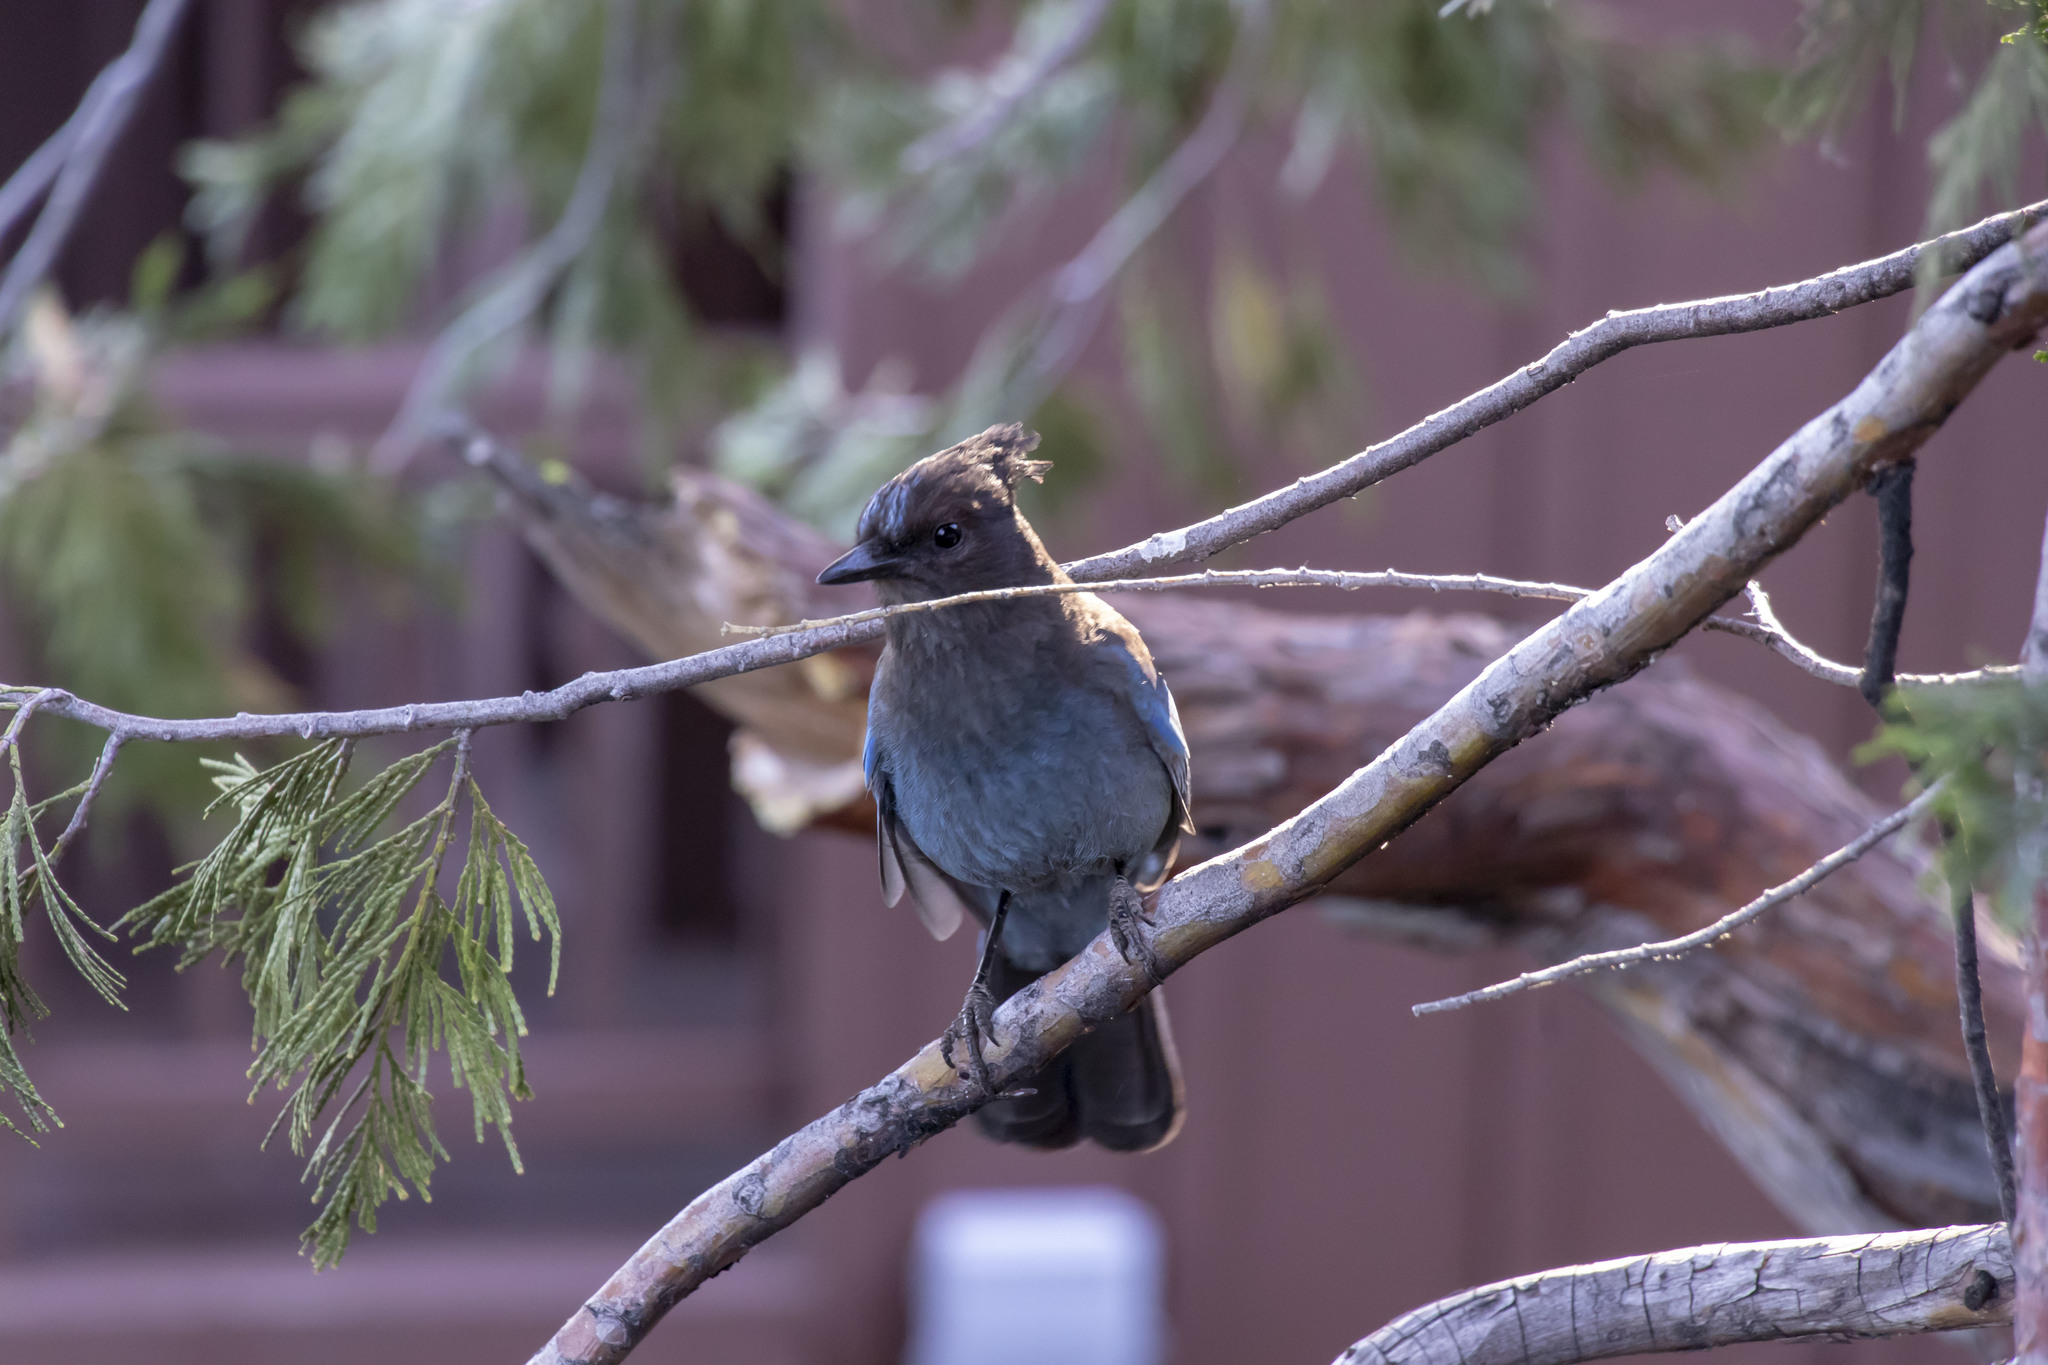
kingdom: Animalia
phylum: Chordata
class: Aves
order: Passeriformes
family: Corvidae
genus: Cyanocitta
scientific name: Cyanocitta stelleri
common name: Steller's jay
